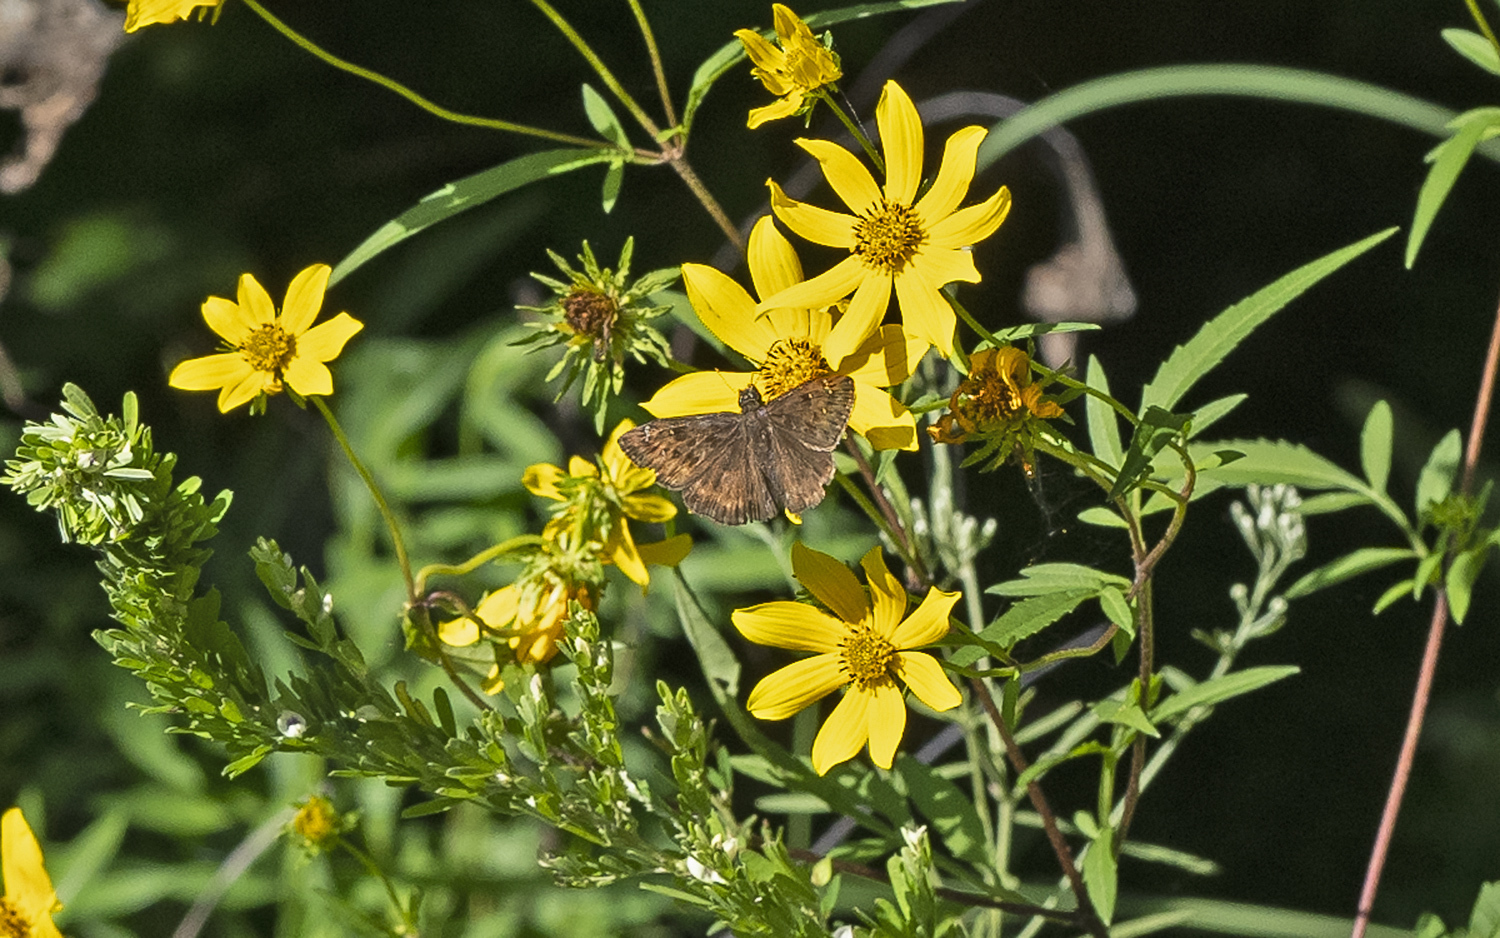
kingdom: Animalia
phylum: Arthropoda
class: Insecta
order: Lepidoptera
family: Hesperiidae
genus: Erynnis
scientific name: Erynnis horatius
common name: Horace's duskywing
